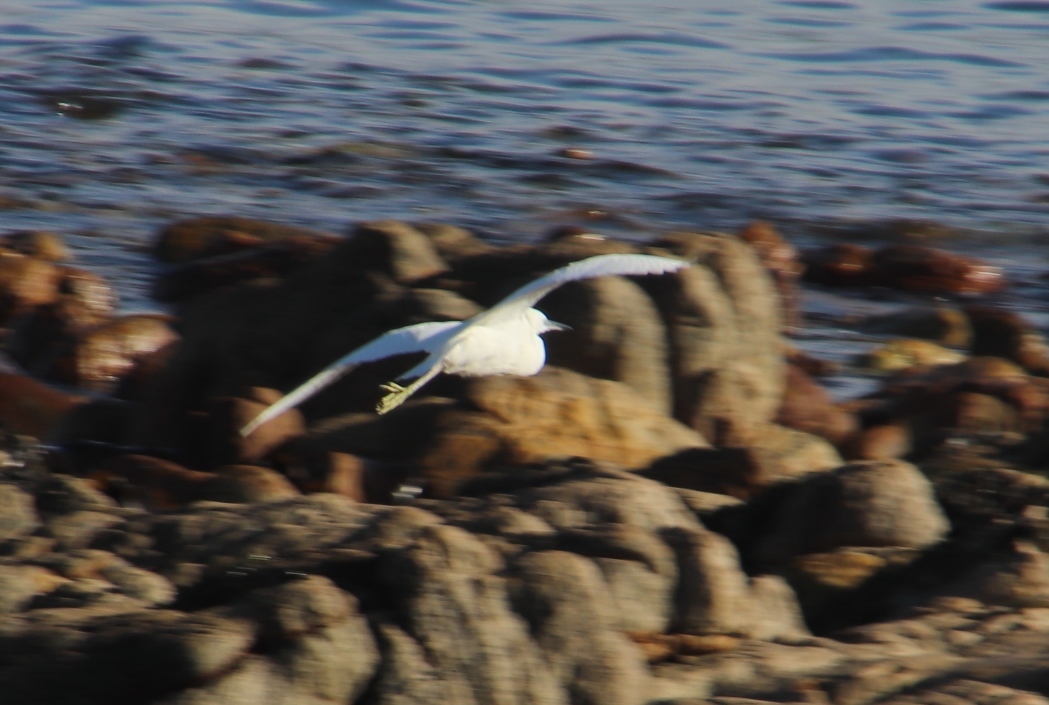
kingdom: Animalia
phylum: Chordata
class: Aves
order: Pelecaniformes
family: Ardeidae
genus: Egretta
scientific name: Egretta garzetta
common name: Little egret
